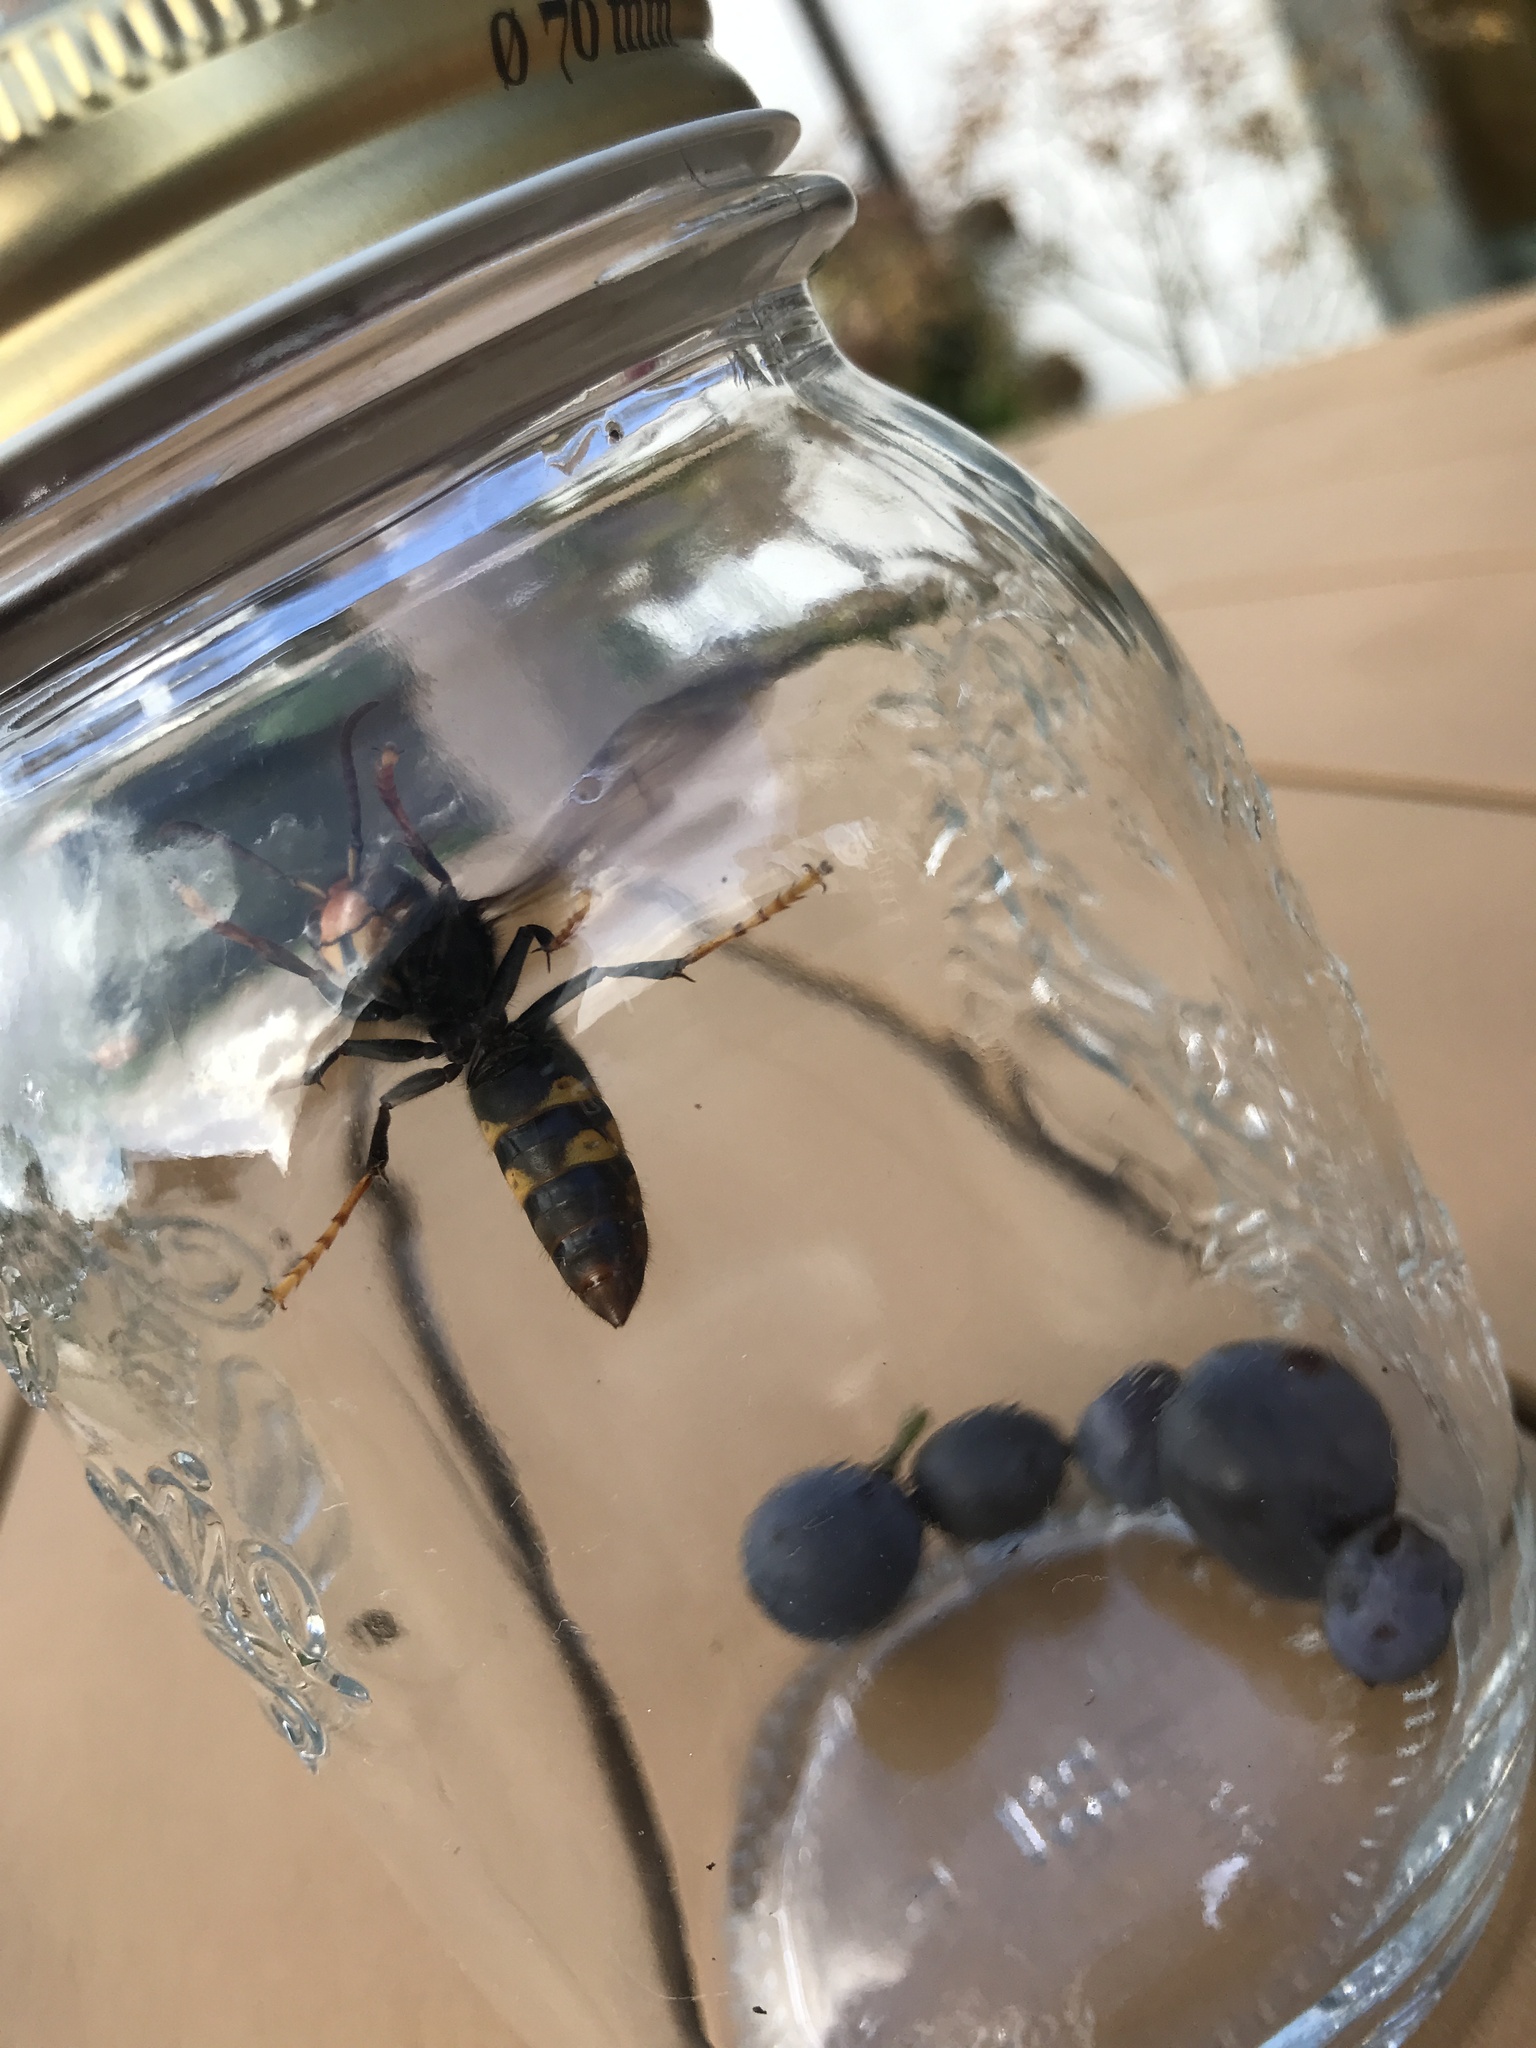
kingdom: Animalia
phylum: Arthropoda
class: Insecta
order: Hymenoptera
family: Vespidae
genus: Vespa
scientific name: Vespa velutina
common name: Asian hornet
